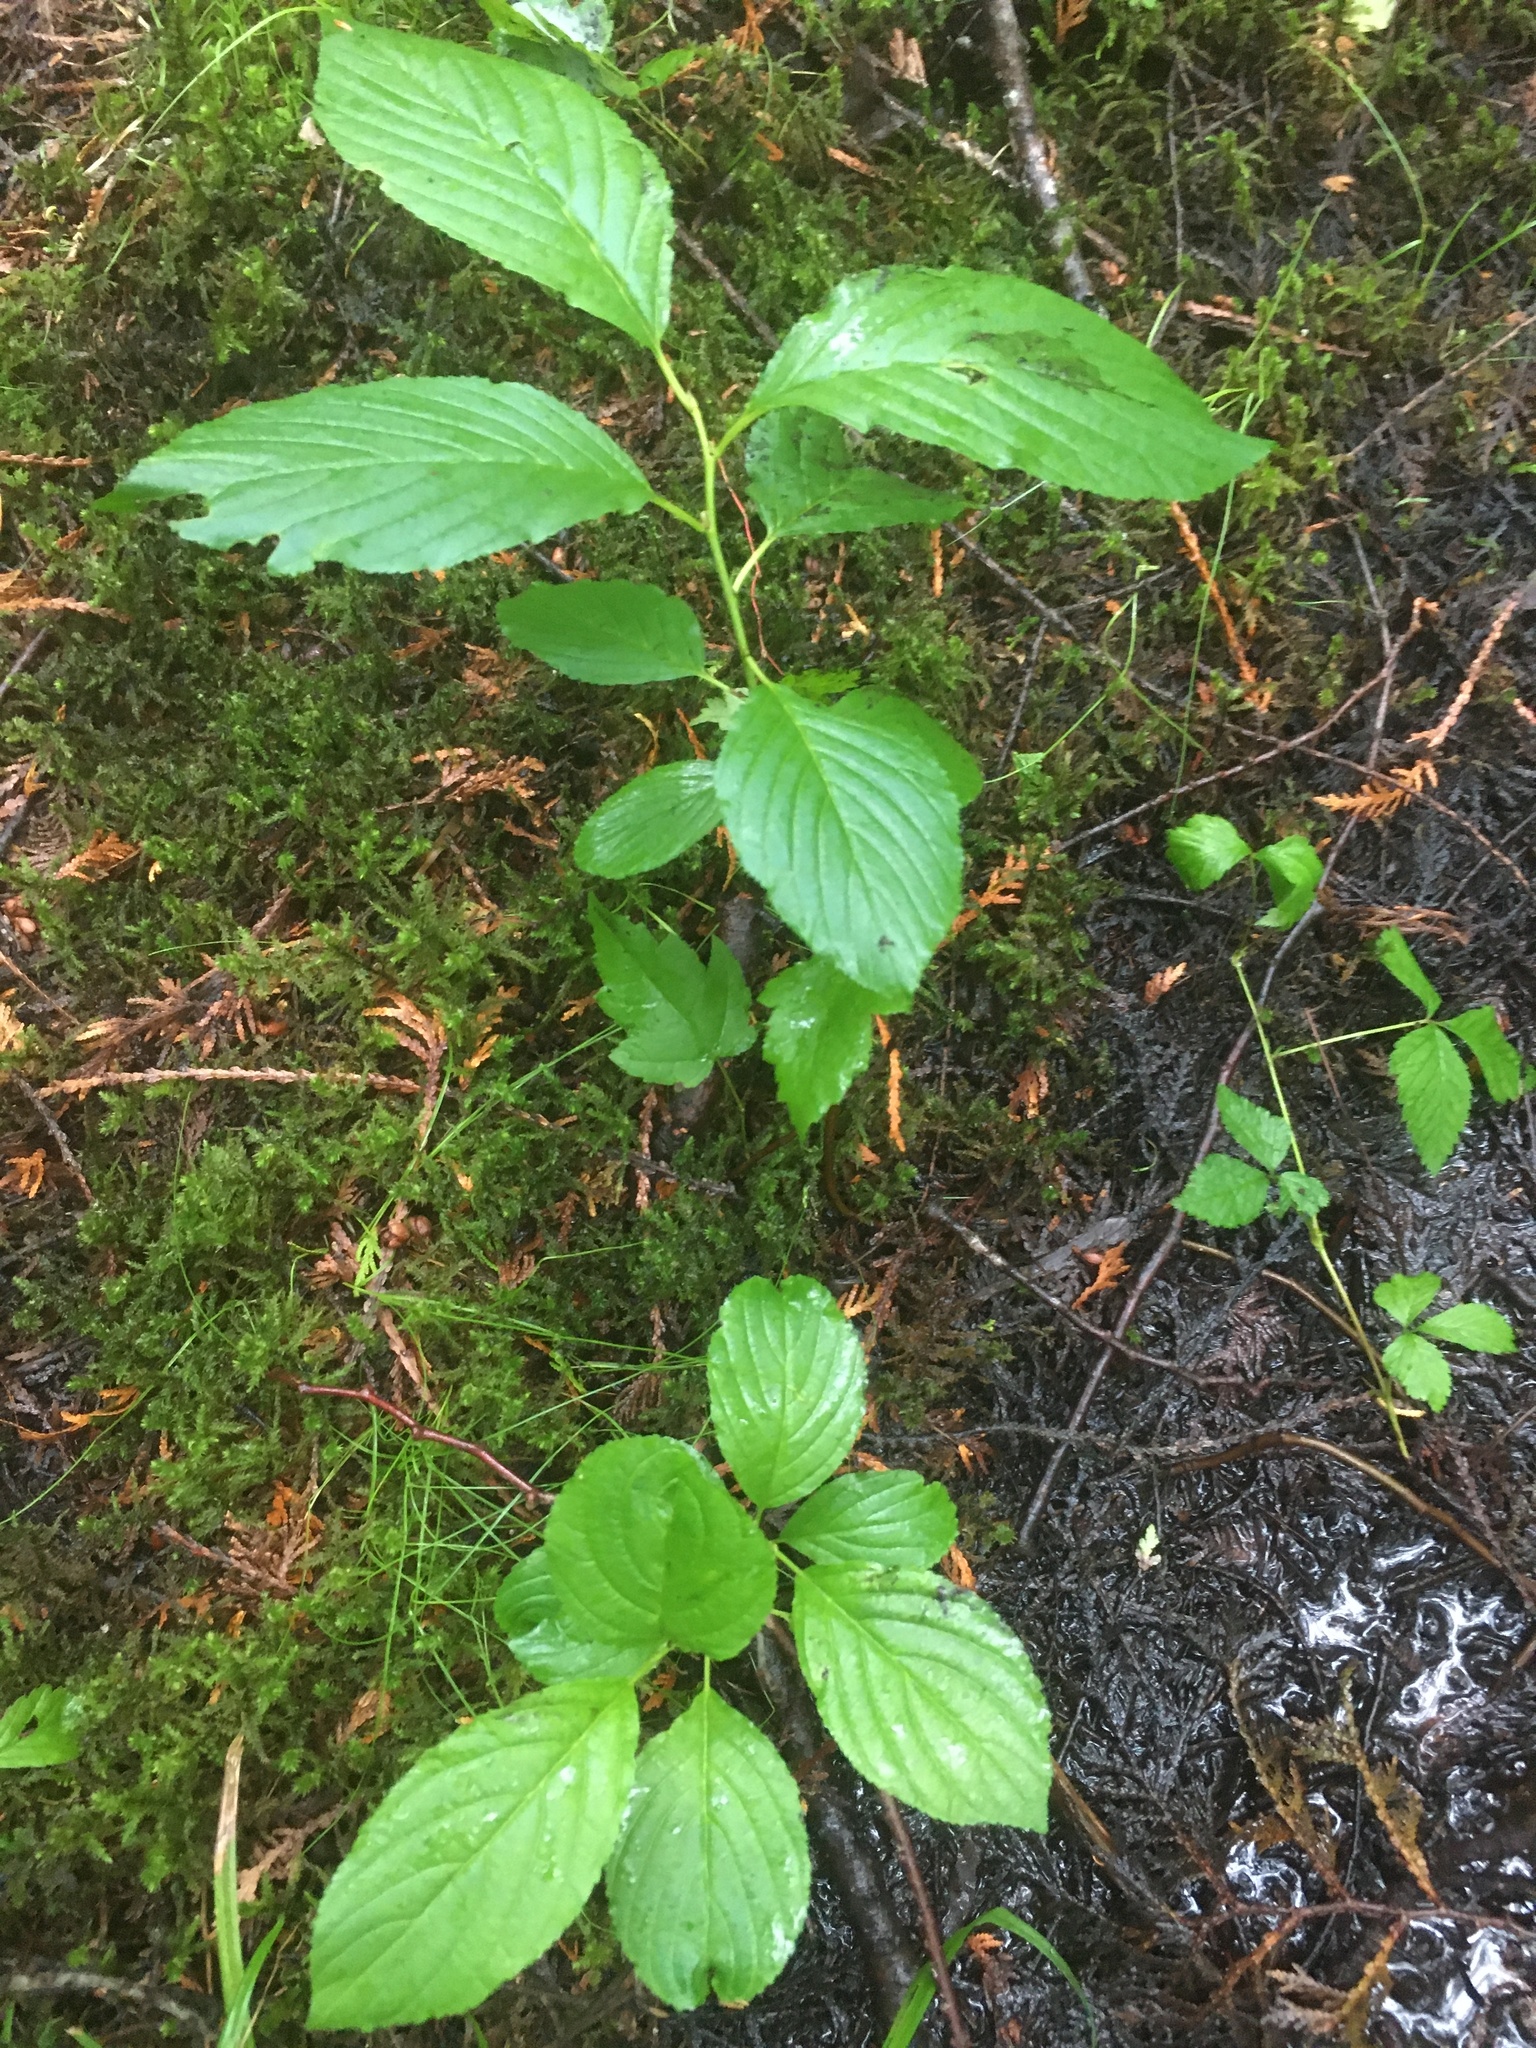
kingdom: Plantae
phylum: Tracheophyta
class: Magnoliopsida
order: Rosales
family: Rhamnaceae
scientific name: Rhamnaceae
